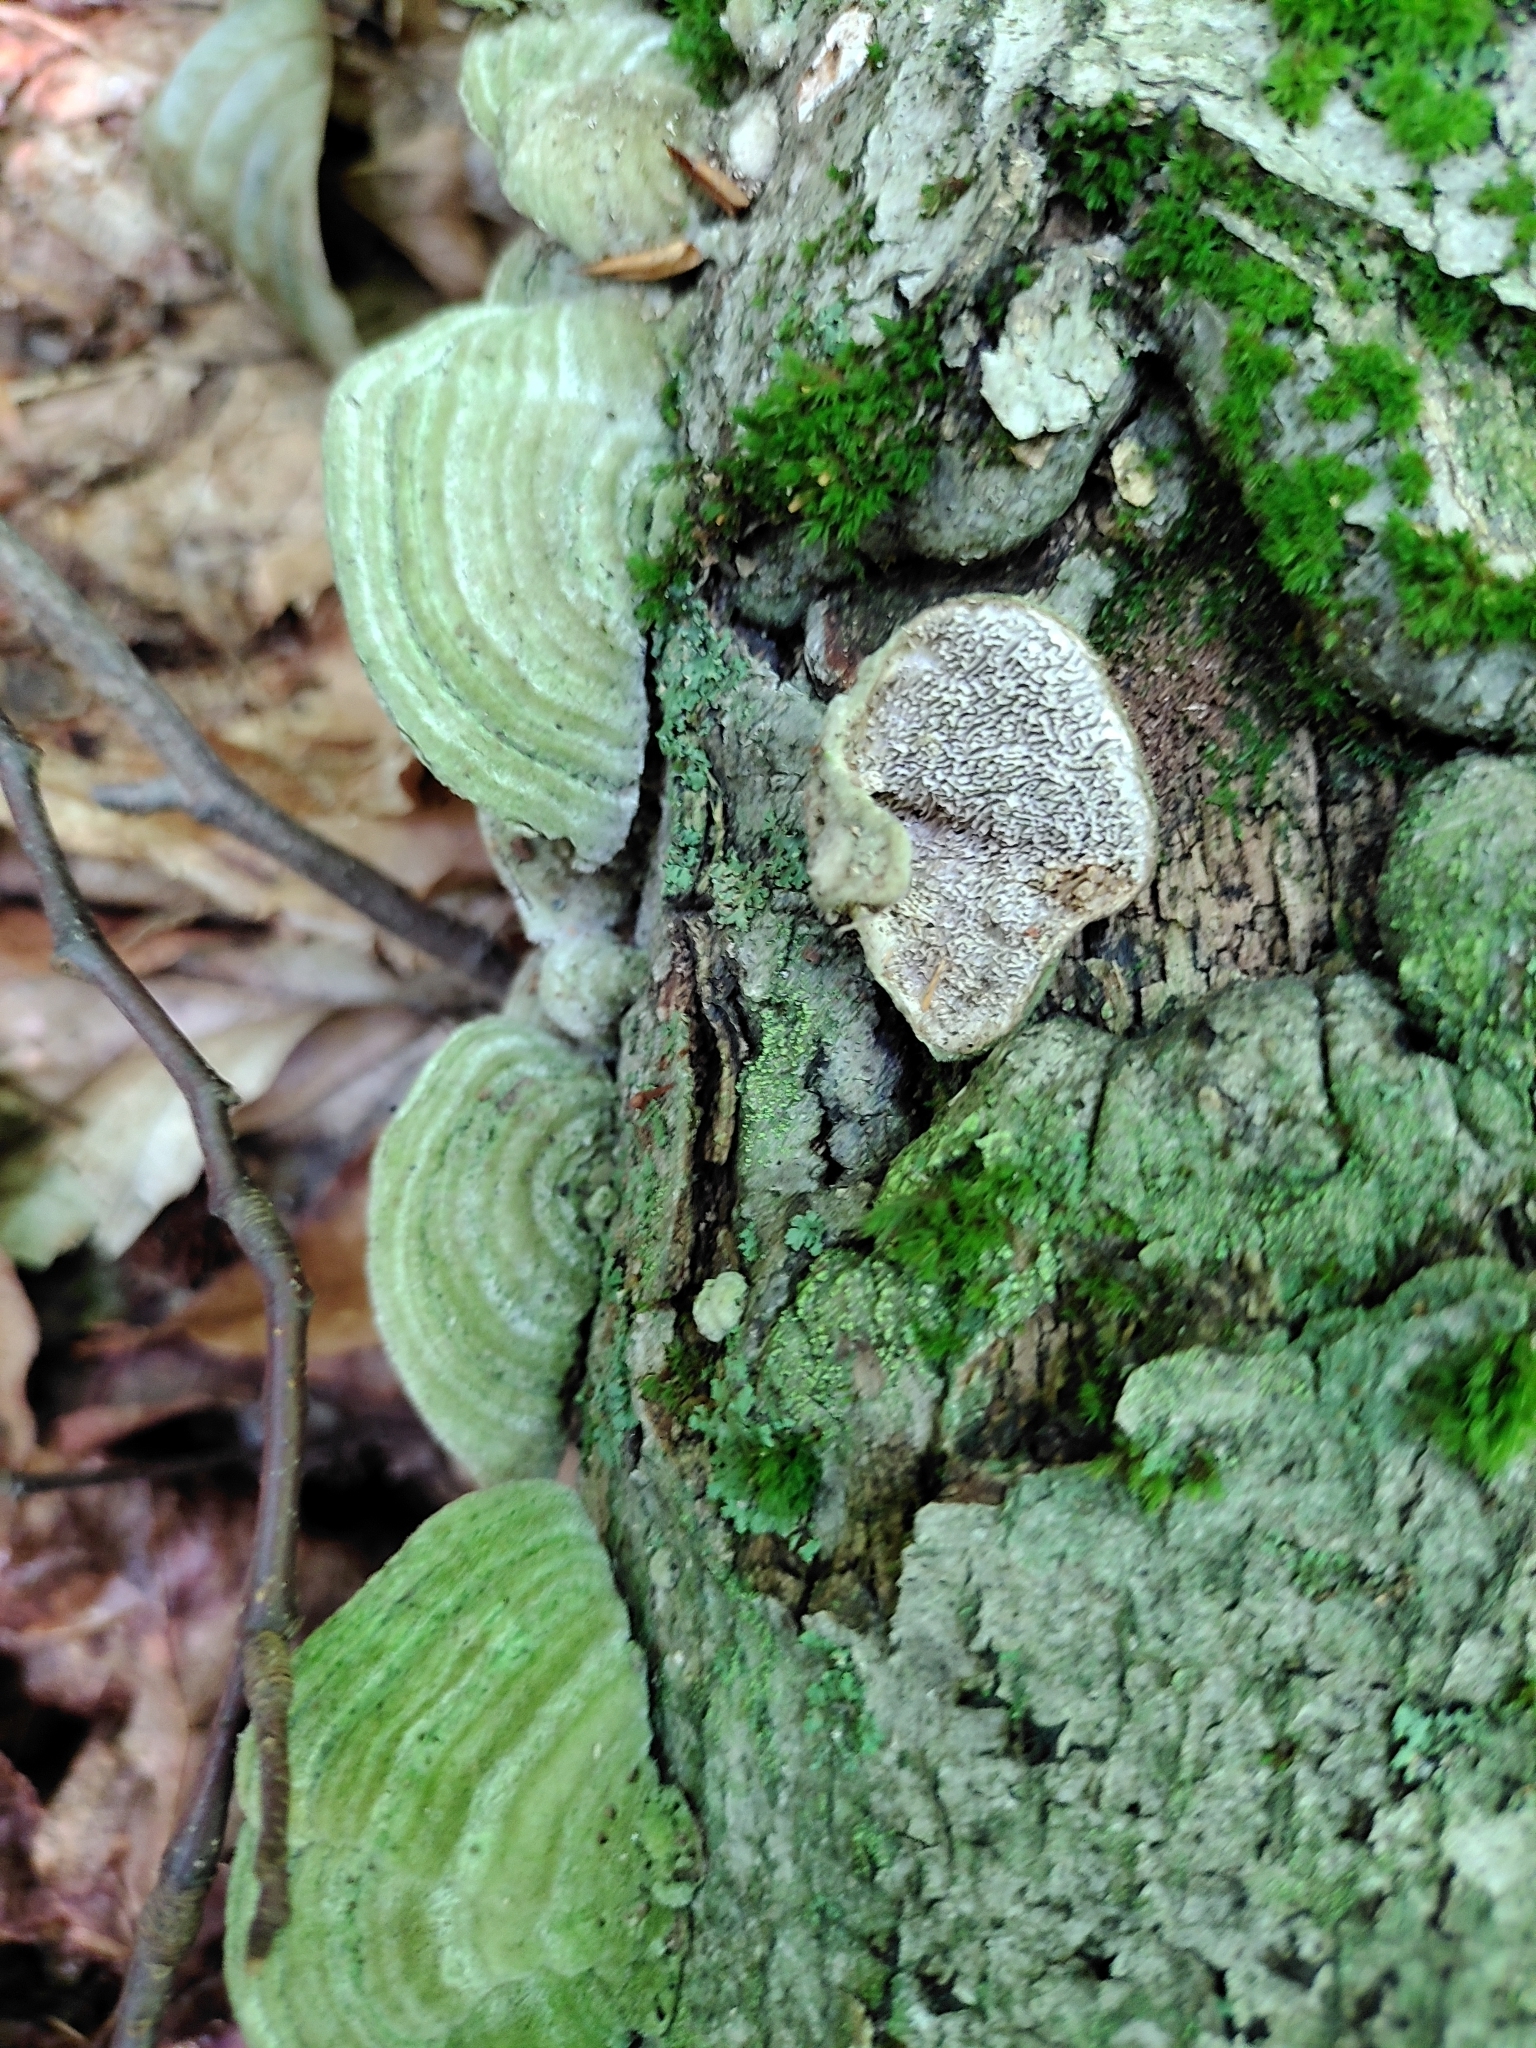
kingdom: Fungi
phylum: Basidiomycota
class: Agaricomycetes
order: Polyporales
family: Cerrenaceae
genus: Cerrena
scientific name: Cerrena unicolor
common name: Mossy maze polypore
